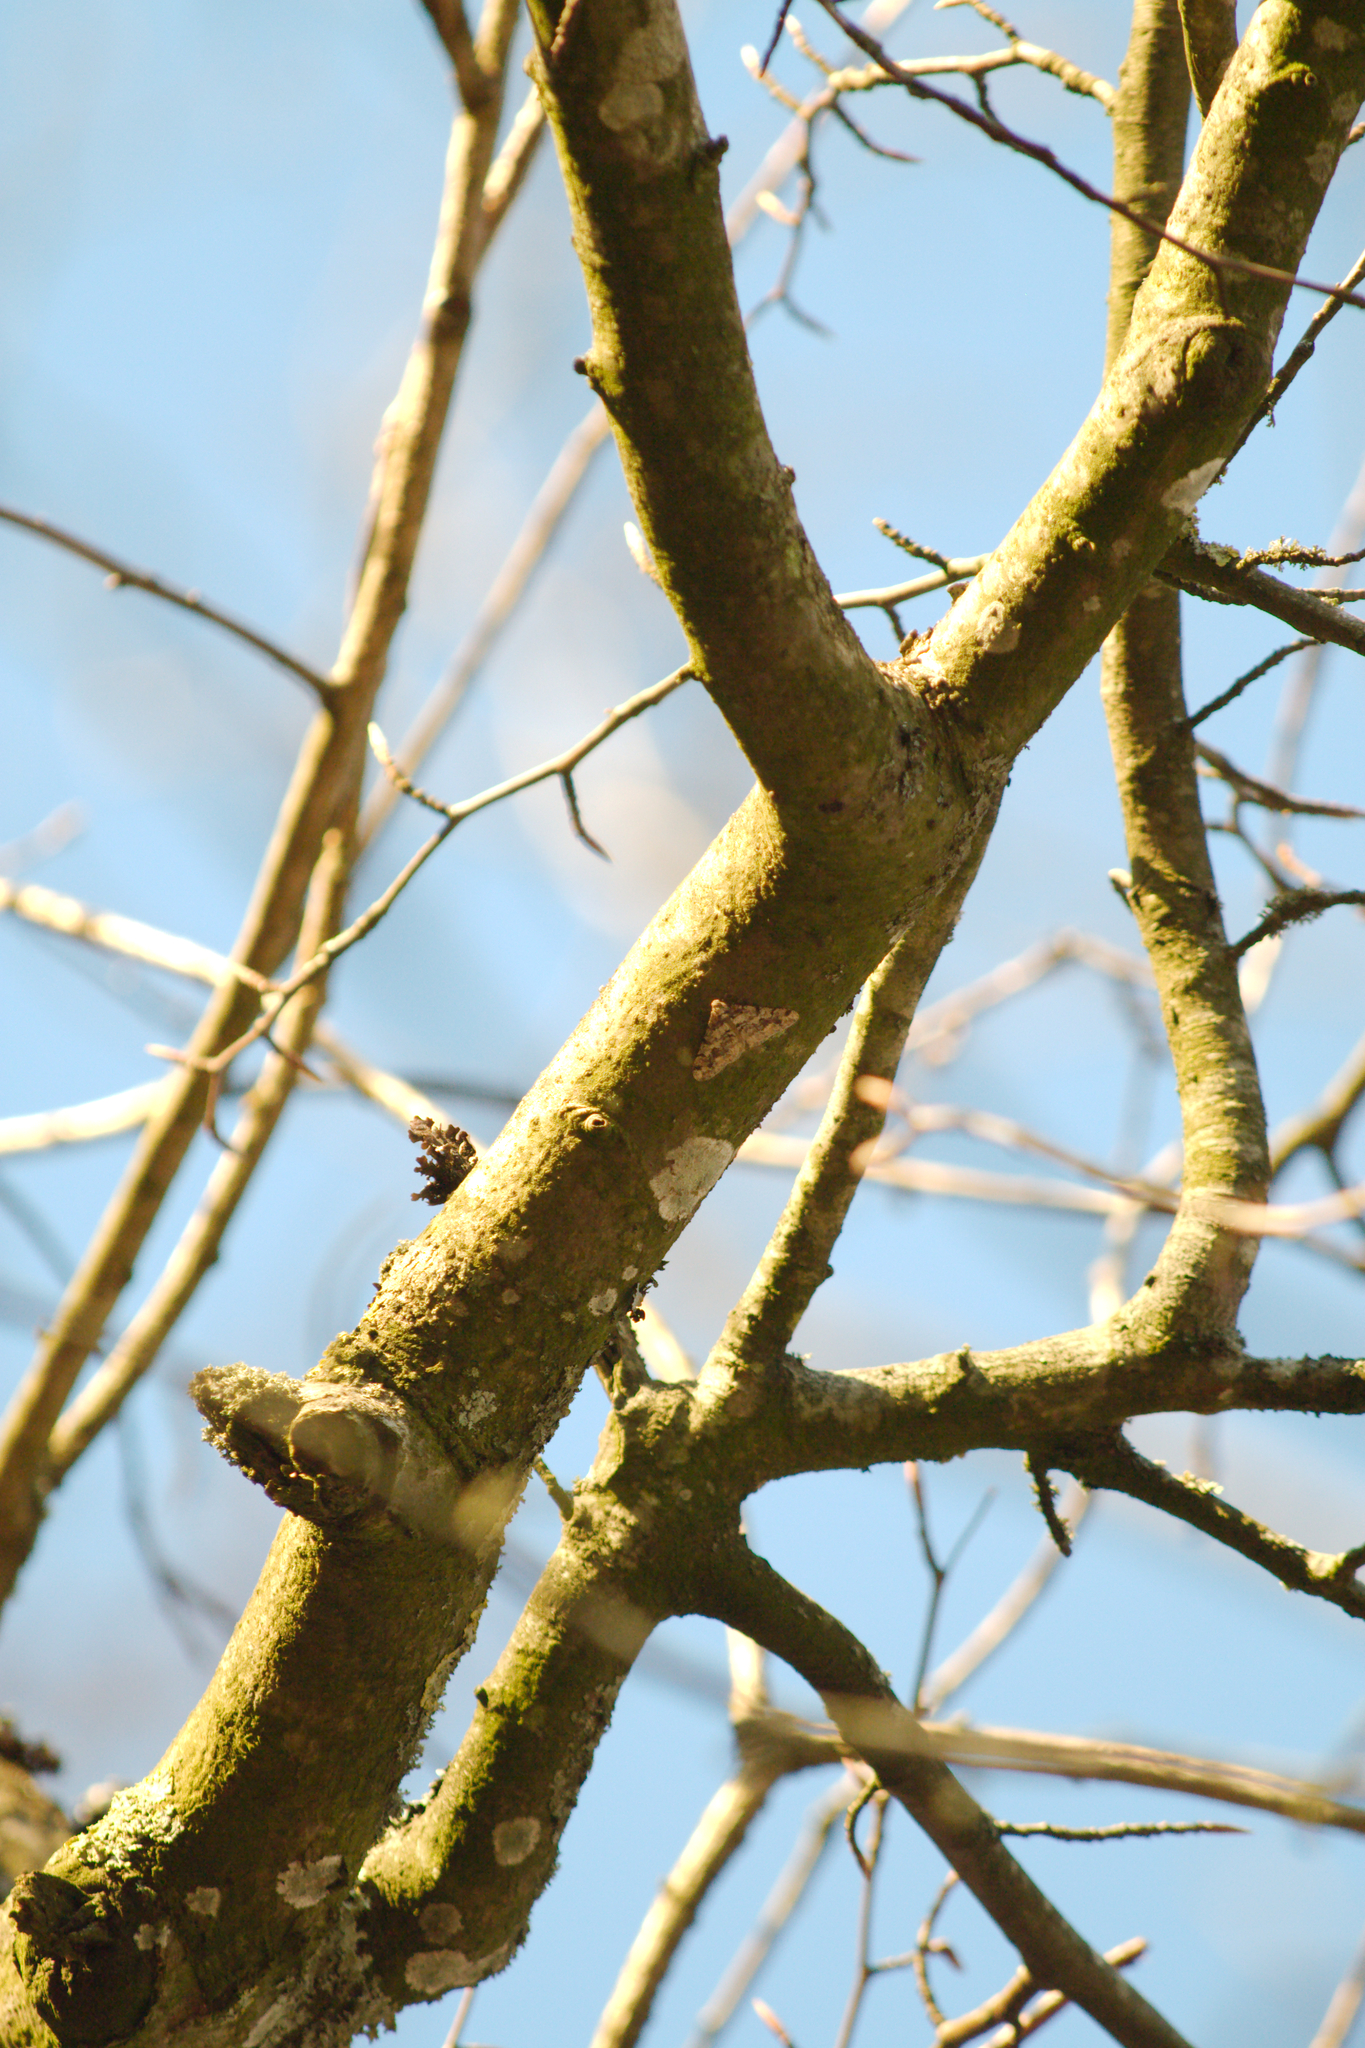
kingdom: Animalia
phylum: Arthropoda
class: Insecta
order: Lepidoptera
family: Geometridae
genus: Agriopis
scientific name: Agriopis leucophaearia
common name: Spring usher
